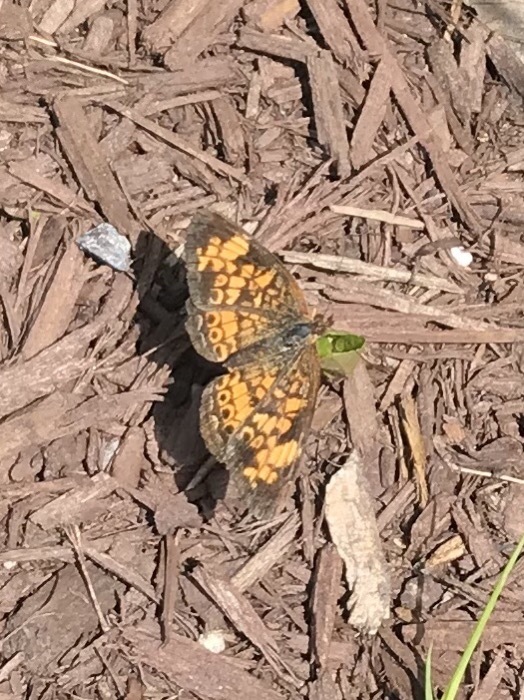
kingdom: Animalia
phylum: Arthropoda
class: Insecta
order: Lepidoptera
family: Nymphalidae
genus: Phyciodes
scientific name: Phyciodes tharos
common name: Pearl crescent
